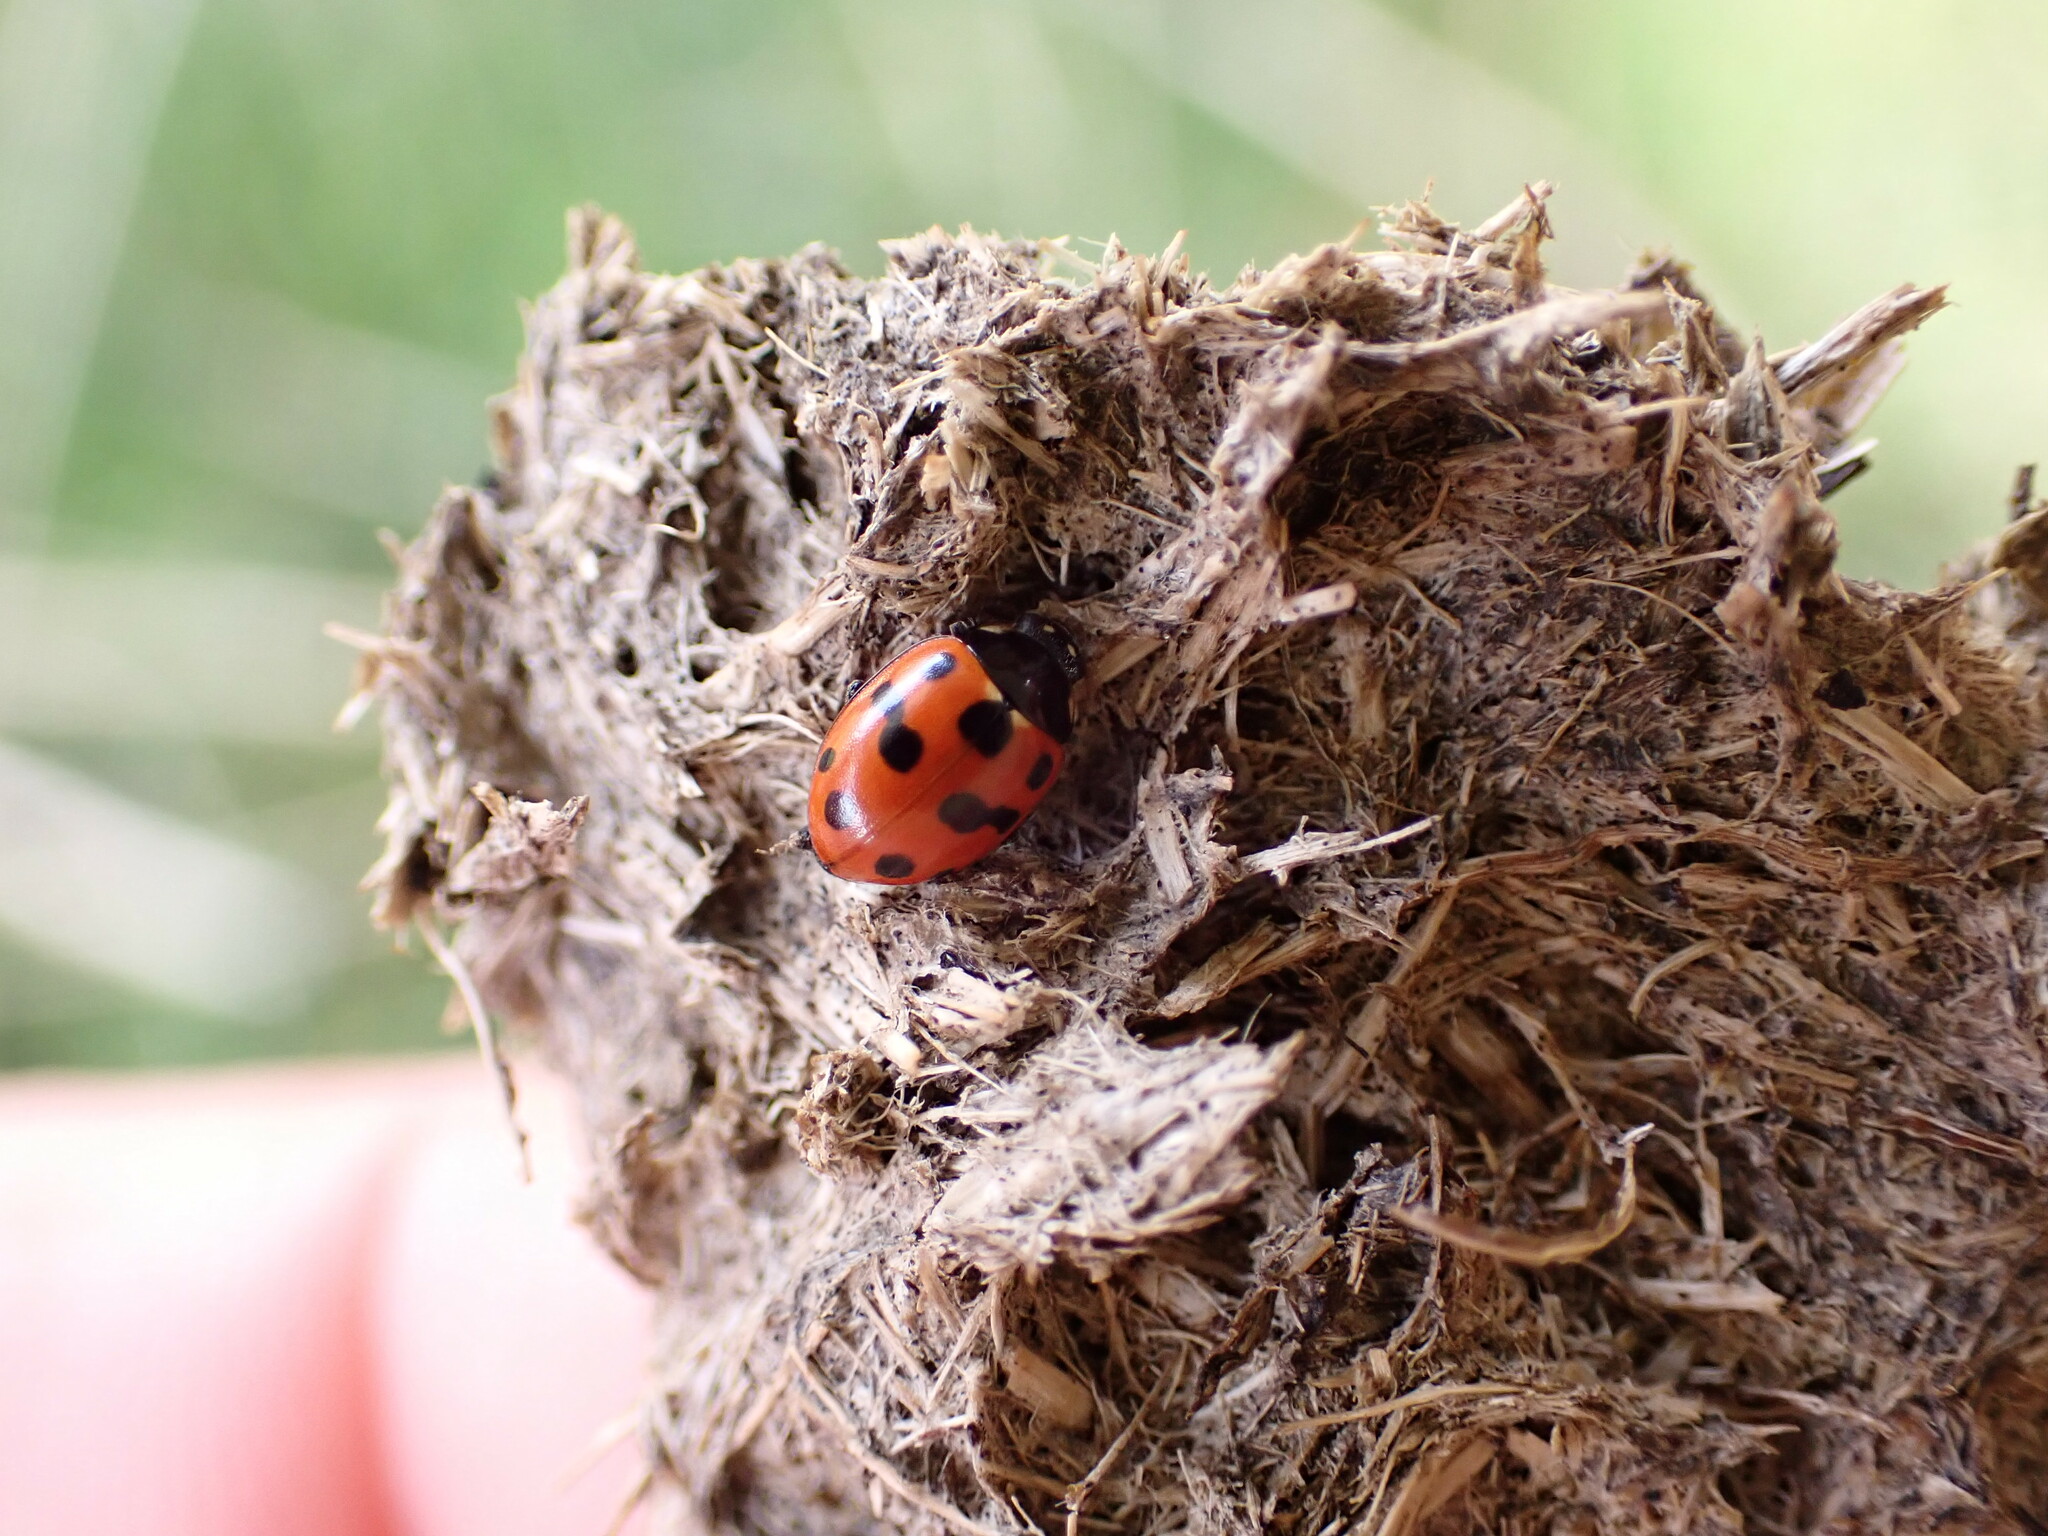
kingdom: Animalia
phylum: Arthropoda
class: Insecta
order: Coleoptera
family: Coccinellidae
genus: Coccinella
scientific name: Coccinella undecimpunctata
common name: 11-spot ladybird
